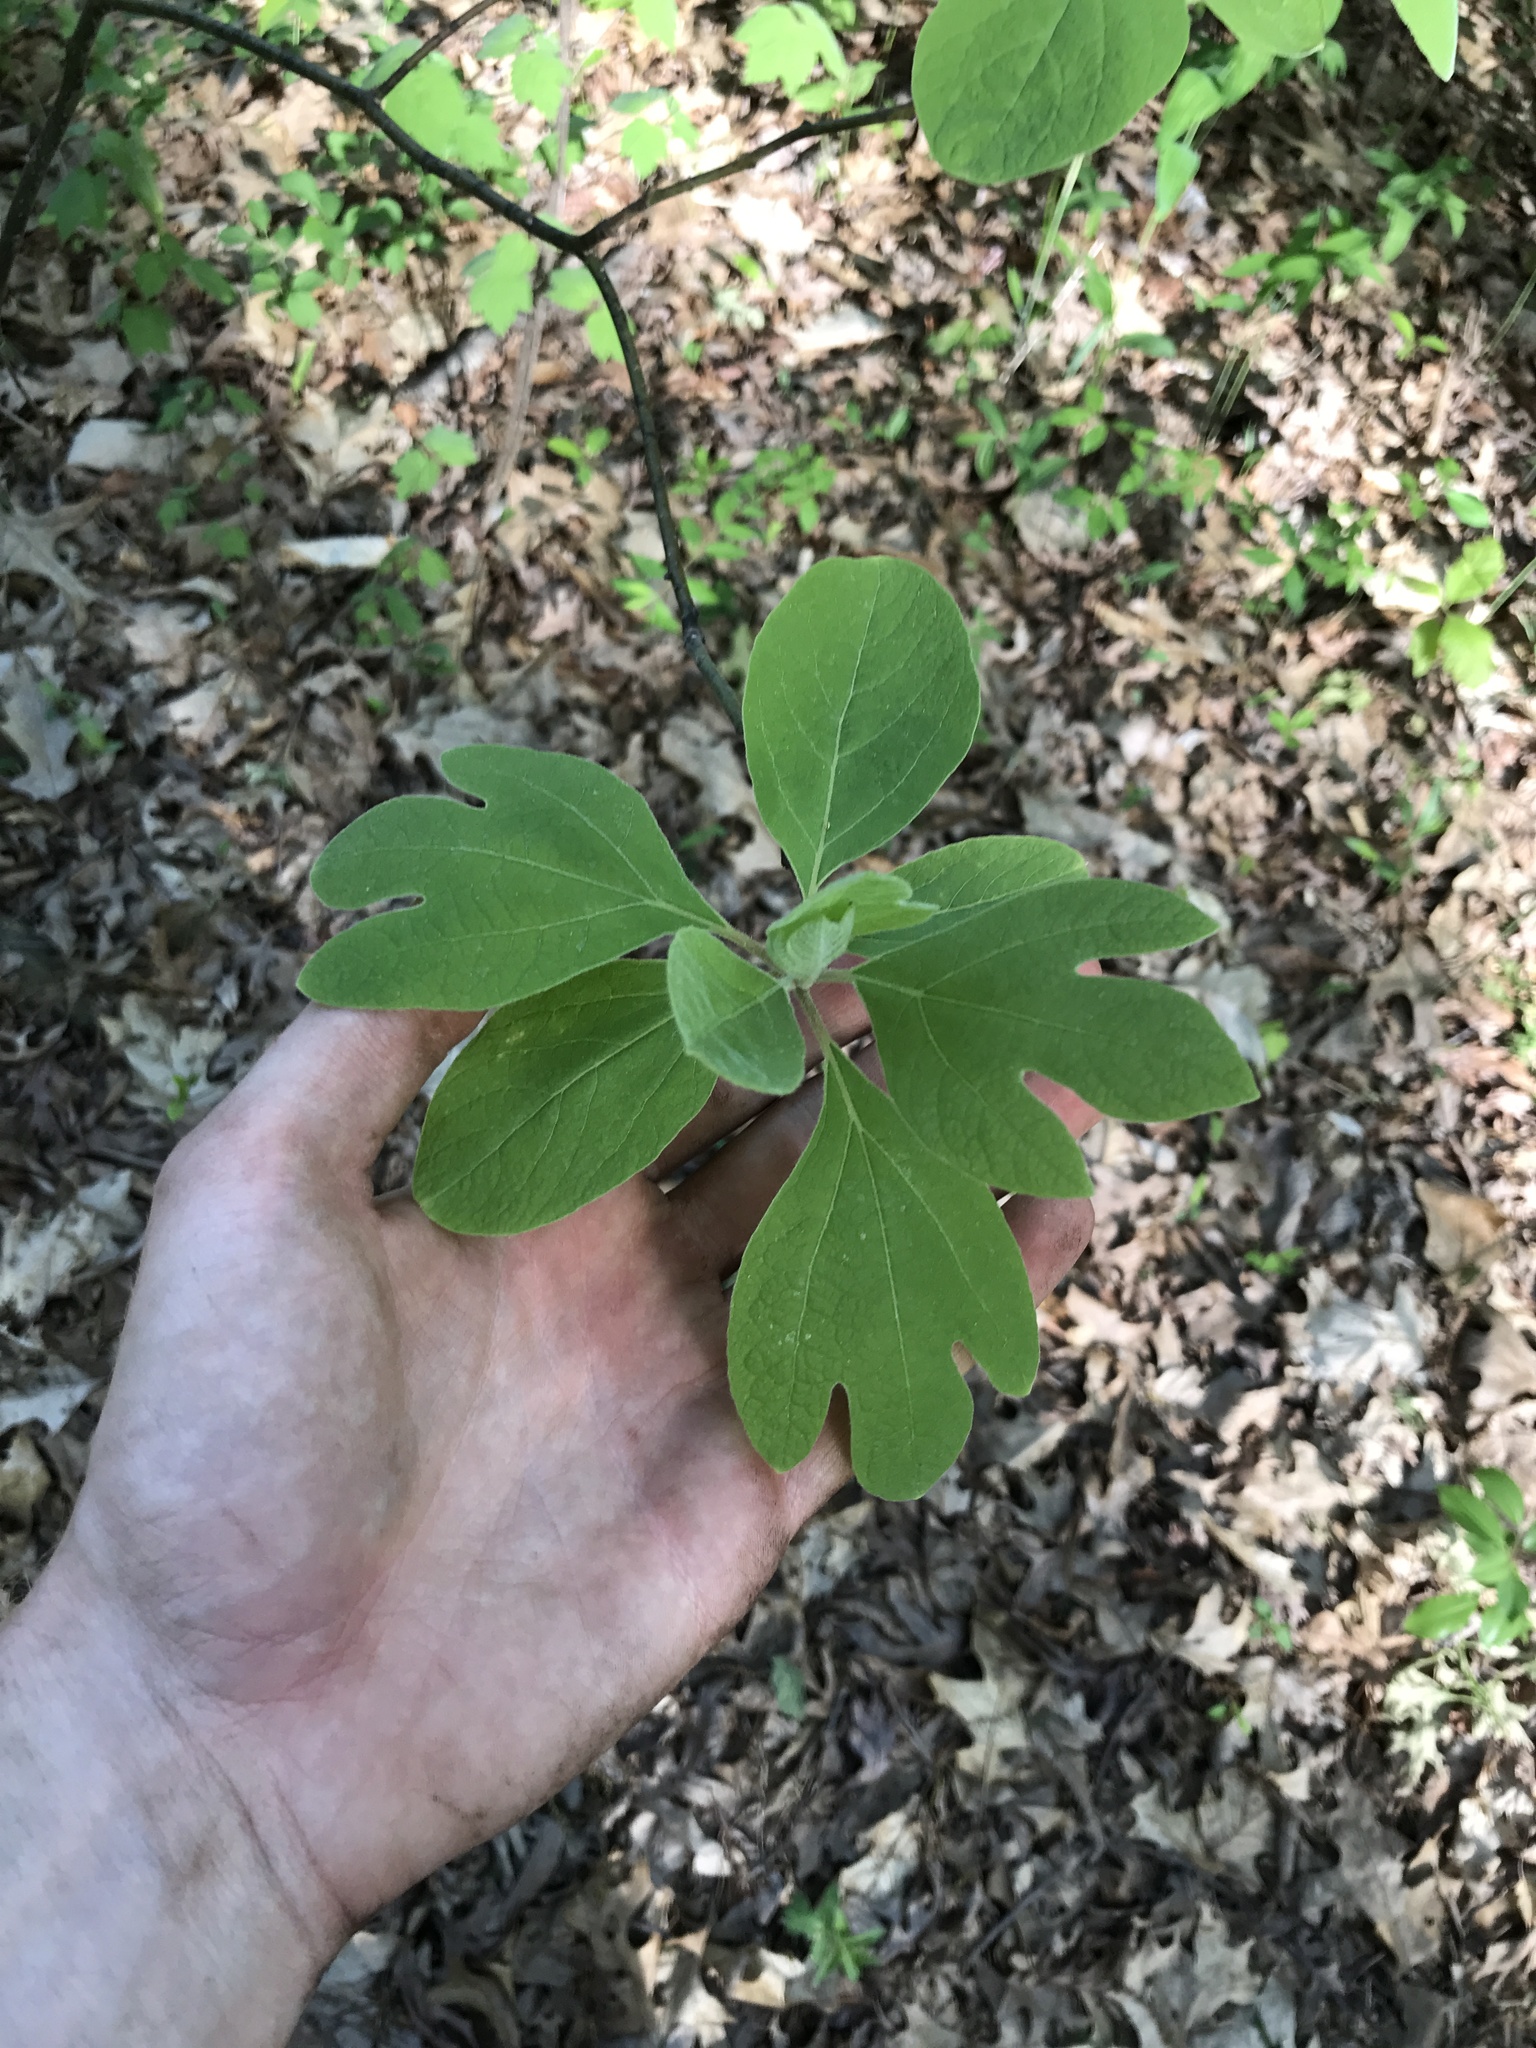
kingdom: Plantae
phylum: Tracheophyta
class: Magnoliopsida
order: Laurales
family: Lauraceae
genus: Sassafras
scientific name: Sassafras albidum
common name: Sassafras
